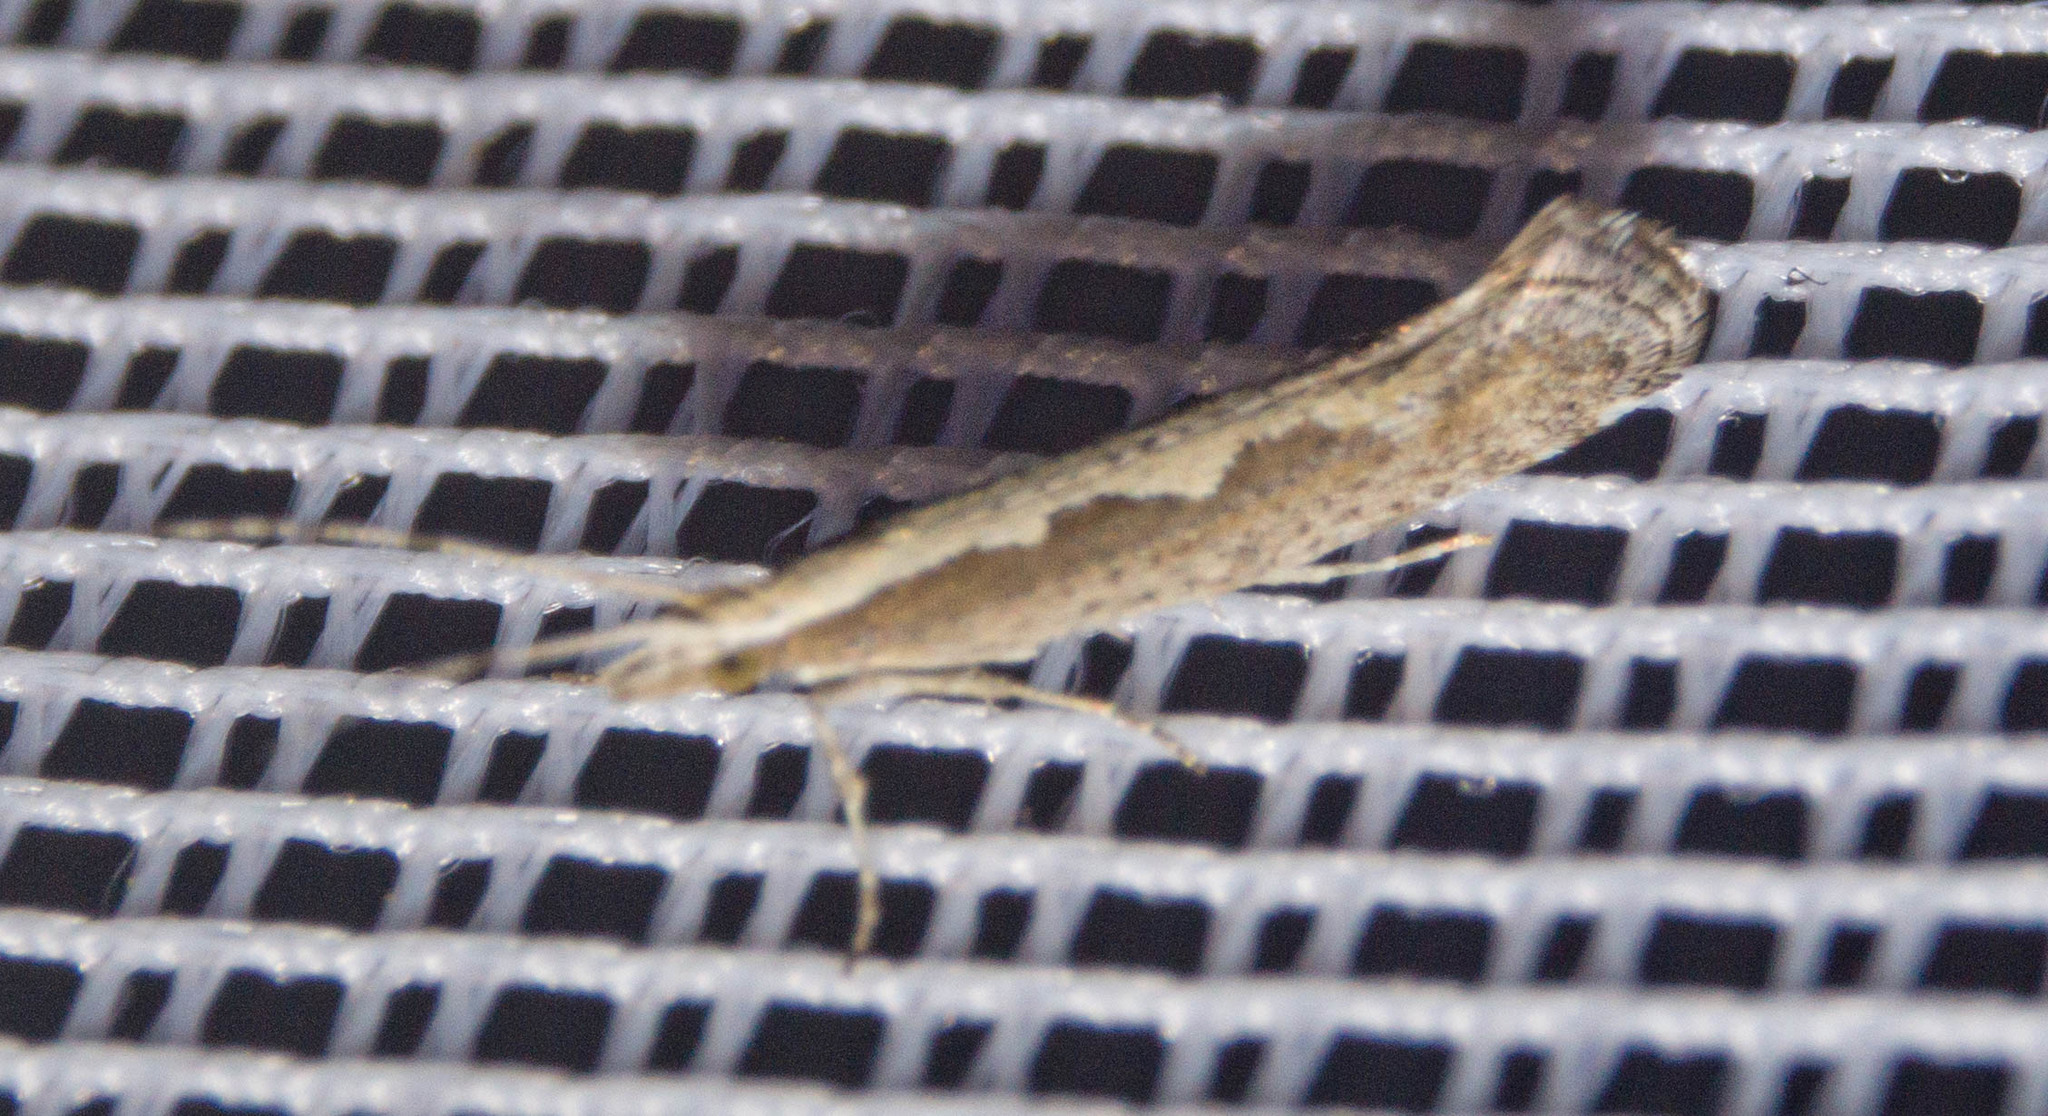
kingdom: Animalia
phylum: Arthropoda
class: Insecta
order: Lepidoptera
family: Plutellidae
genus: Plutella
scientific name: Plutella xylostella
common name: Diamond-back moth
